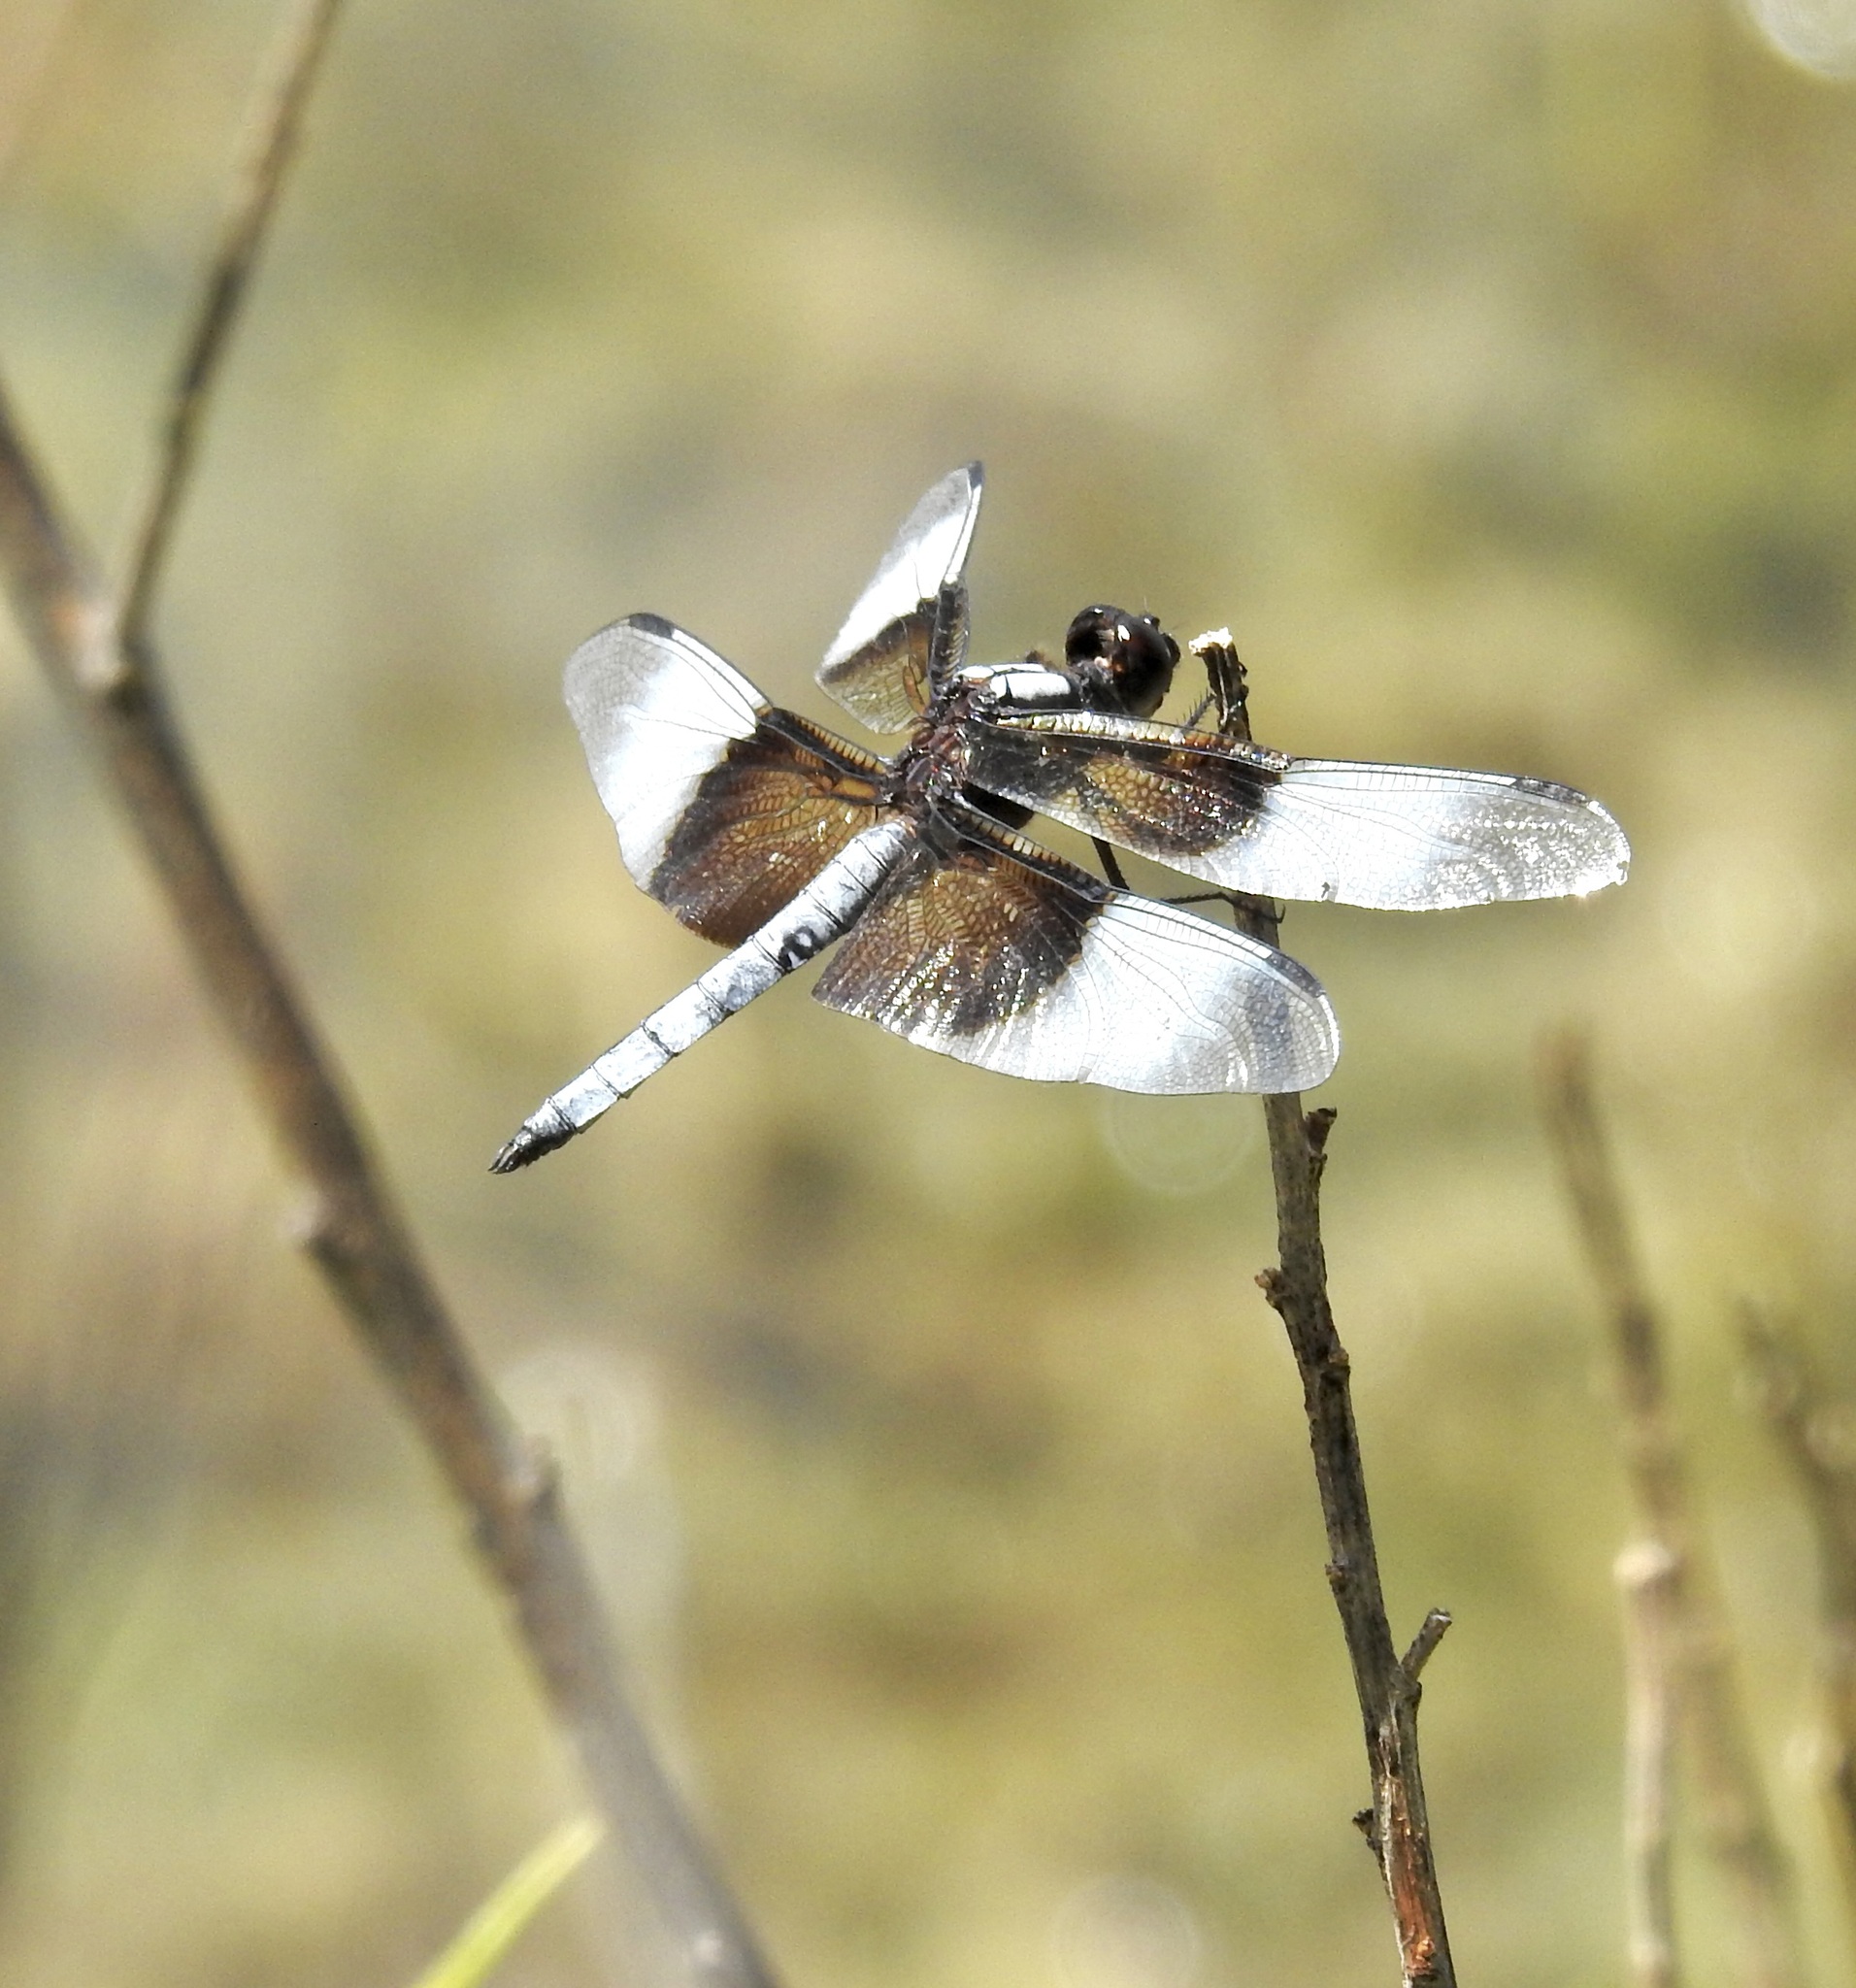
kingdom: Animalia
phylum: Arthropoda
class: Insecta
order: Odonata
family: Libellulidae
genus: Libellula
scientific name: Libellula luctuosa
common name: Widow skimmer
